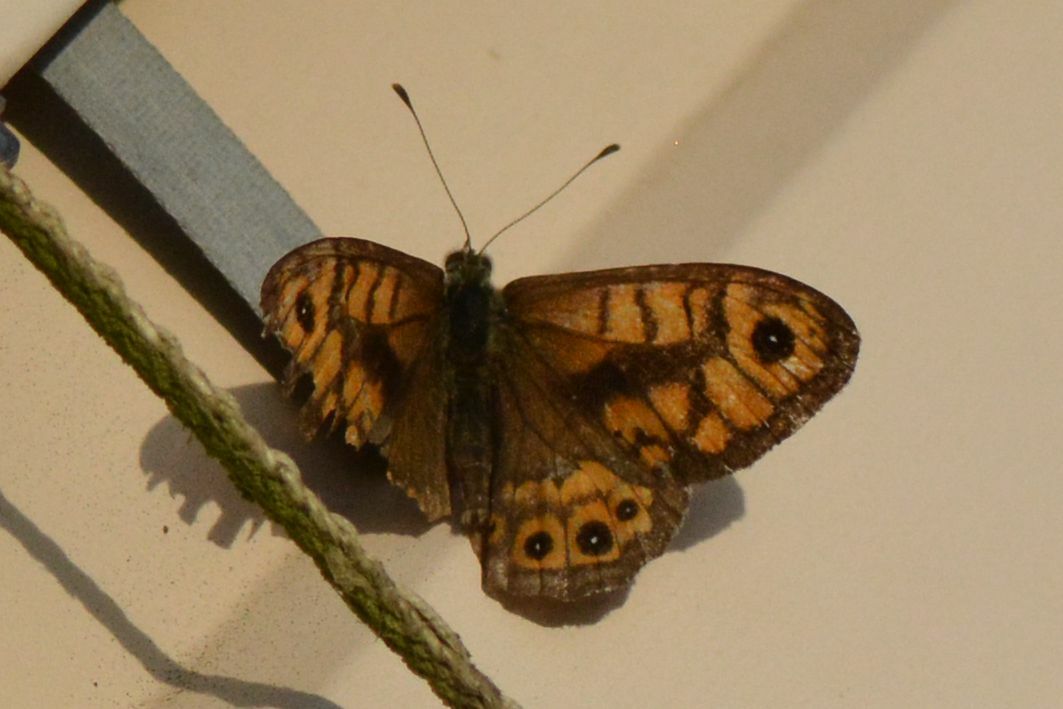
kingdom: Animalia
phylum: Arthropoda
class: Insecta
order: Lepidoptera
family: Nymphalidae
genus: Pararge
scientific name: Pararge Lasiommata megera
